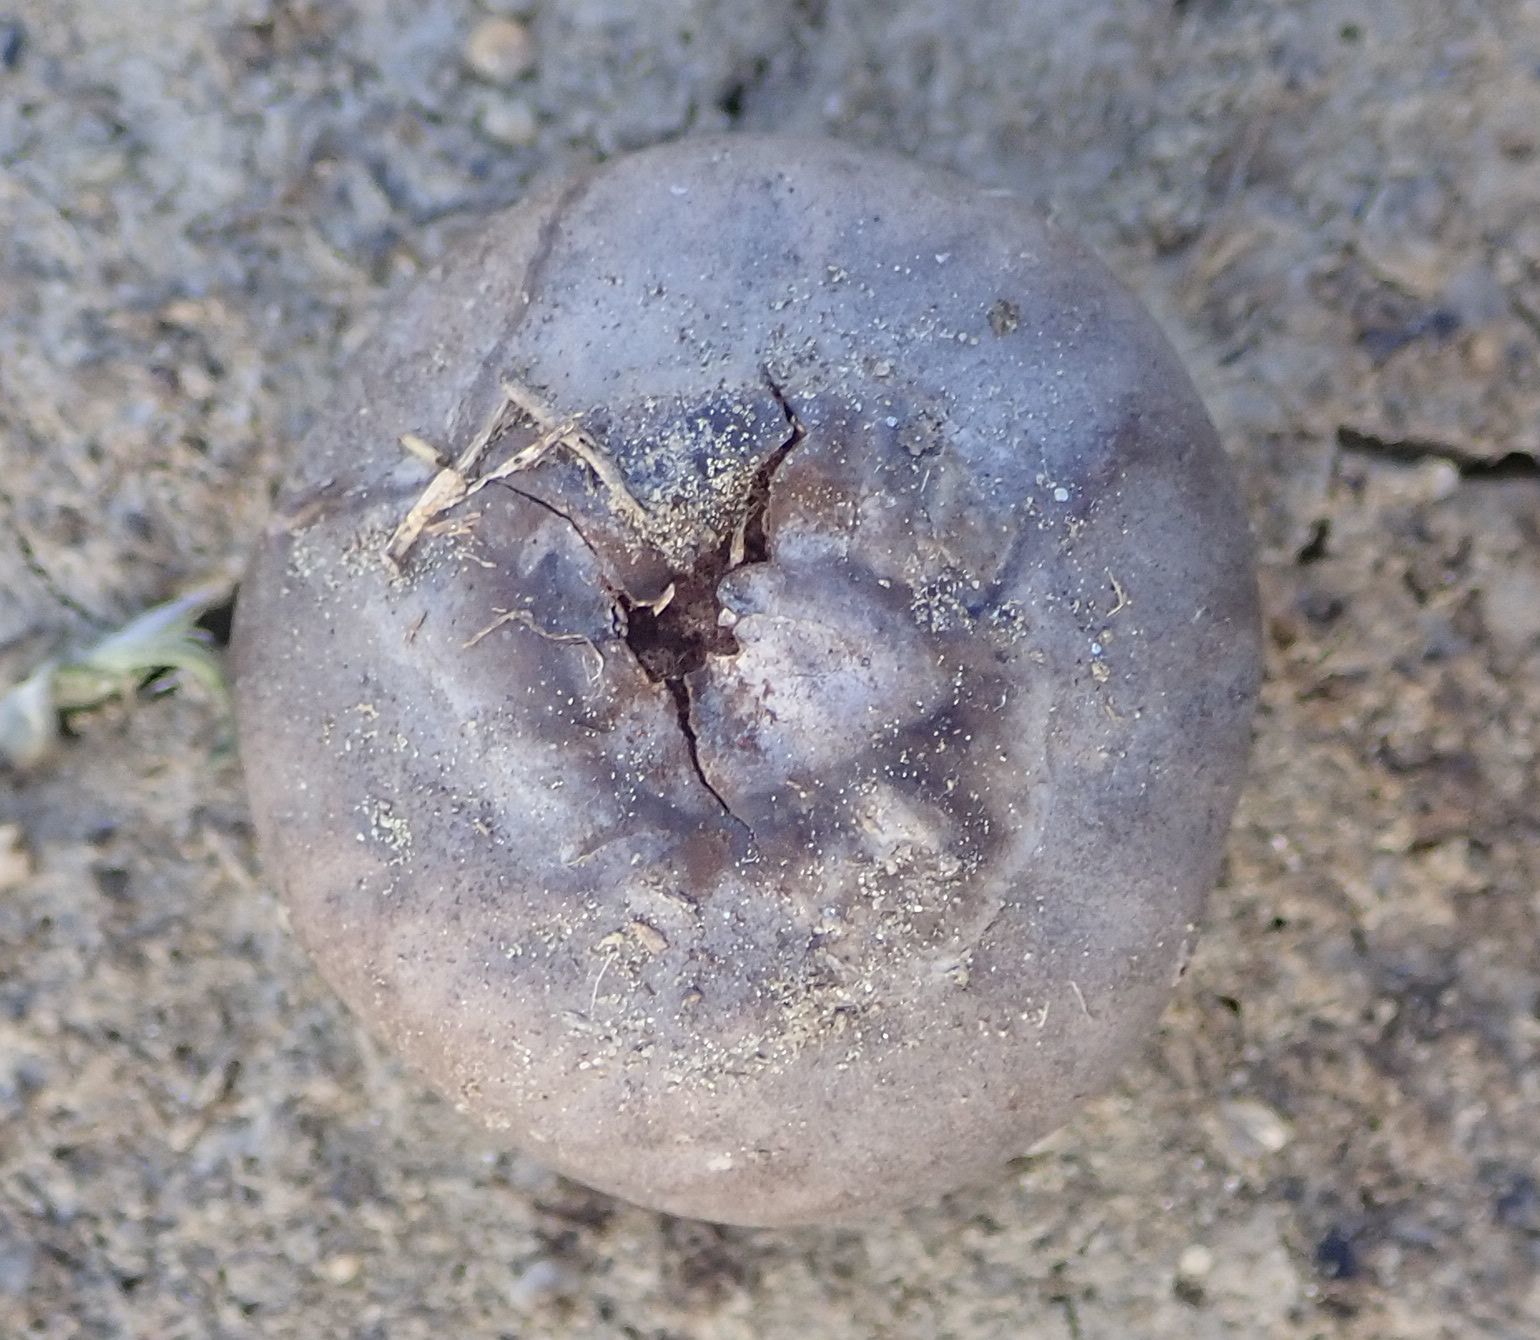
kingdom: Fungi
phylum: Basidiomycota
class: Agaricomycetes
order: Agaricales
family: Lycoperdaceae
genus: Bovista
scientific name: Bovista plumbea
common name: Grey puffball
